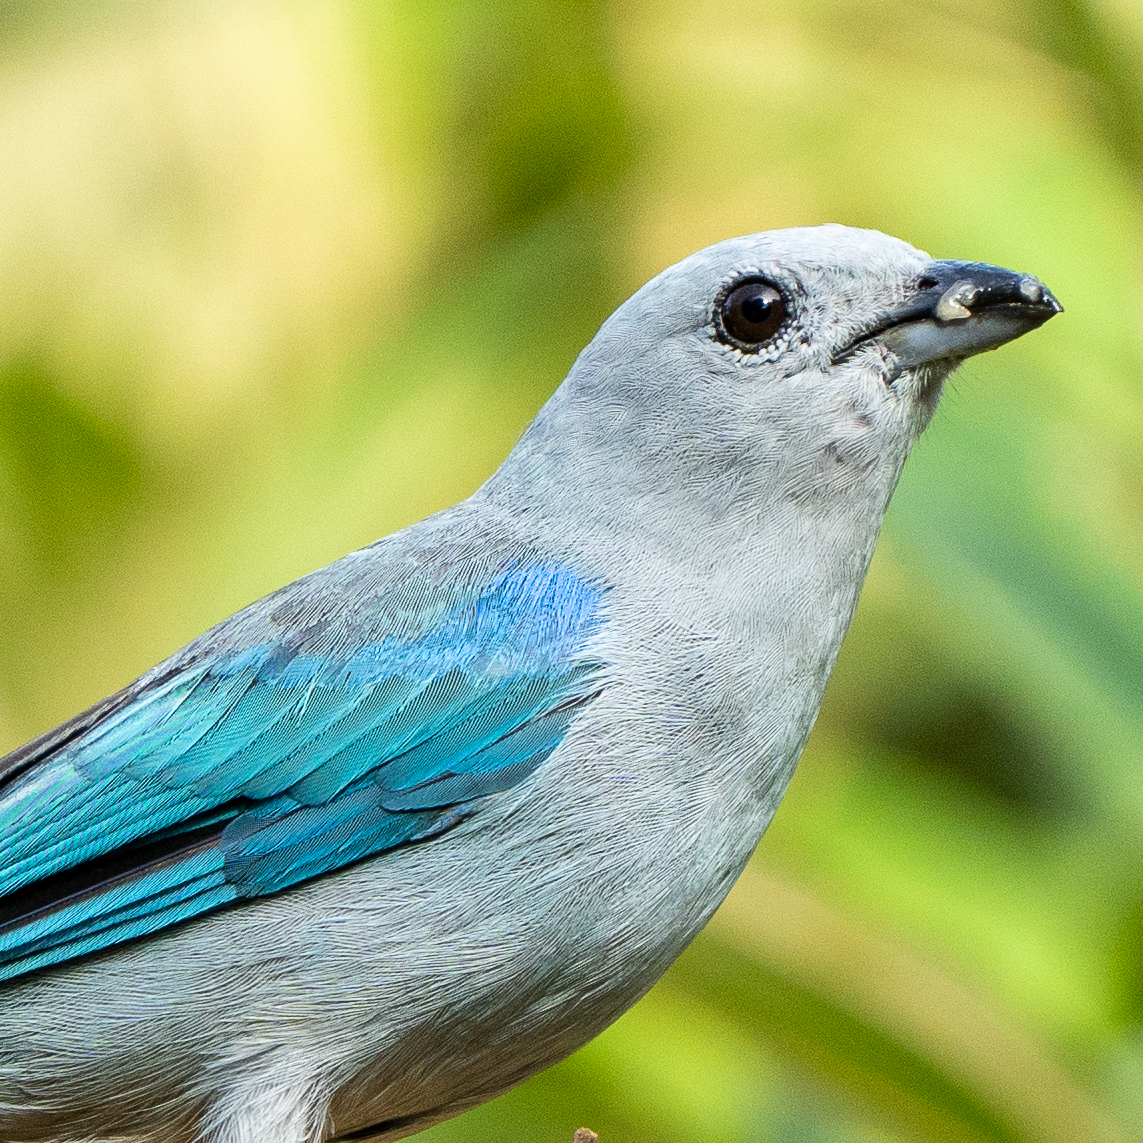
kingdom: Animalia
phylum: Chordata
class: Aves
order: Passeriformes
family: Thraupidae
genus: Thraupis
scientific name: Thraupis episcopus
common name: Blue-grey tanager
